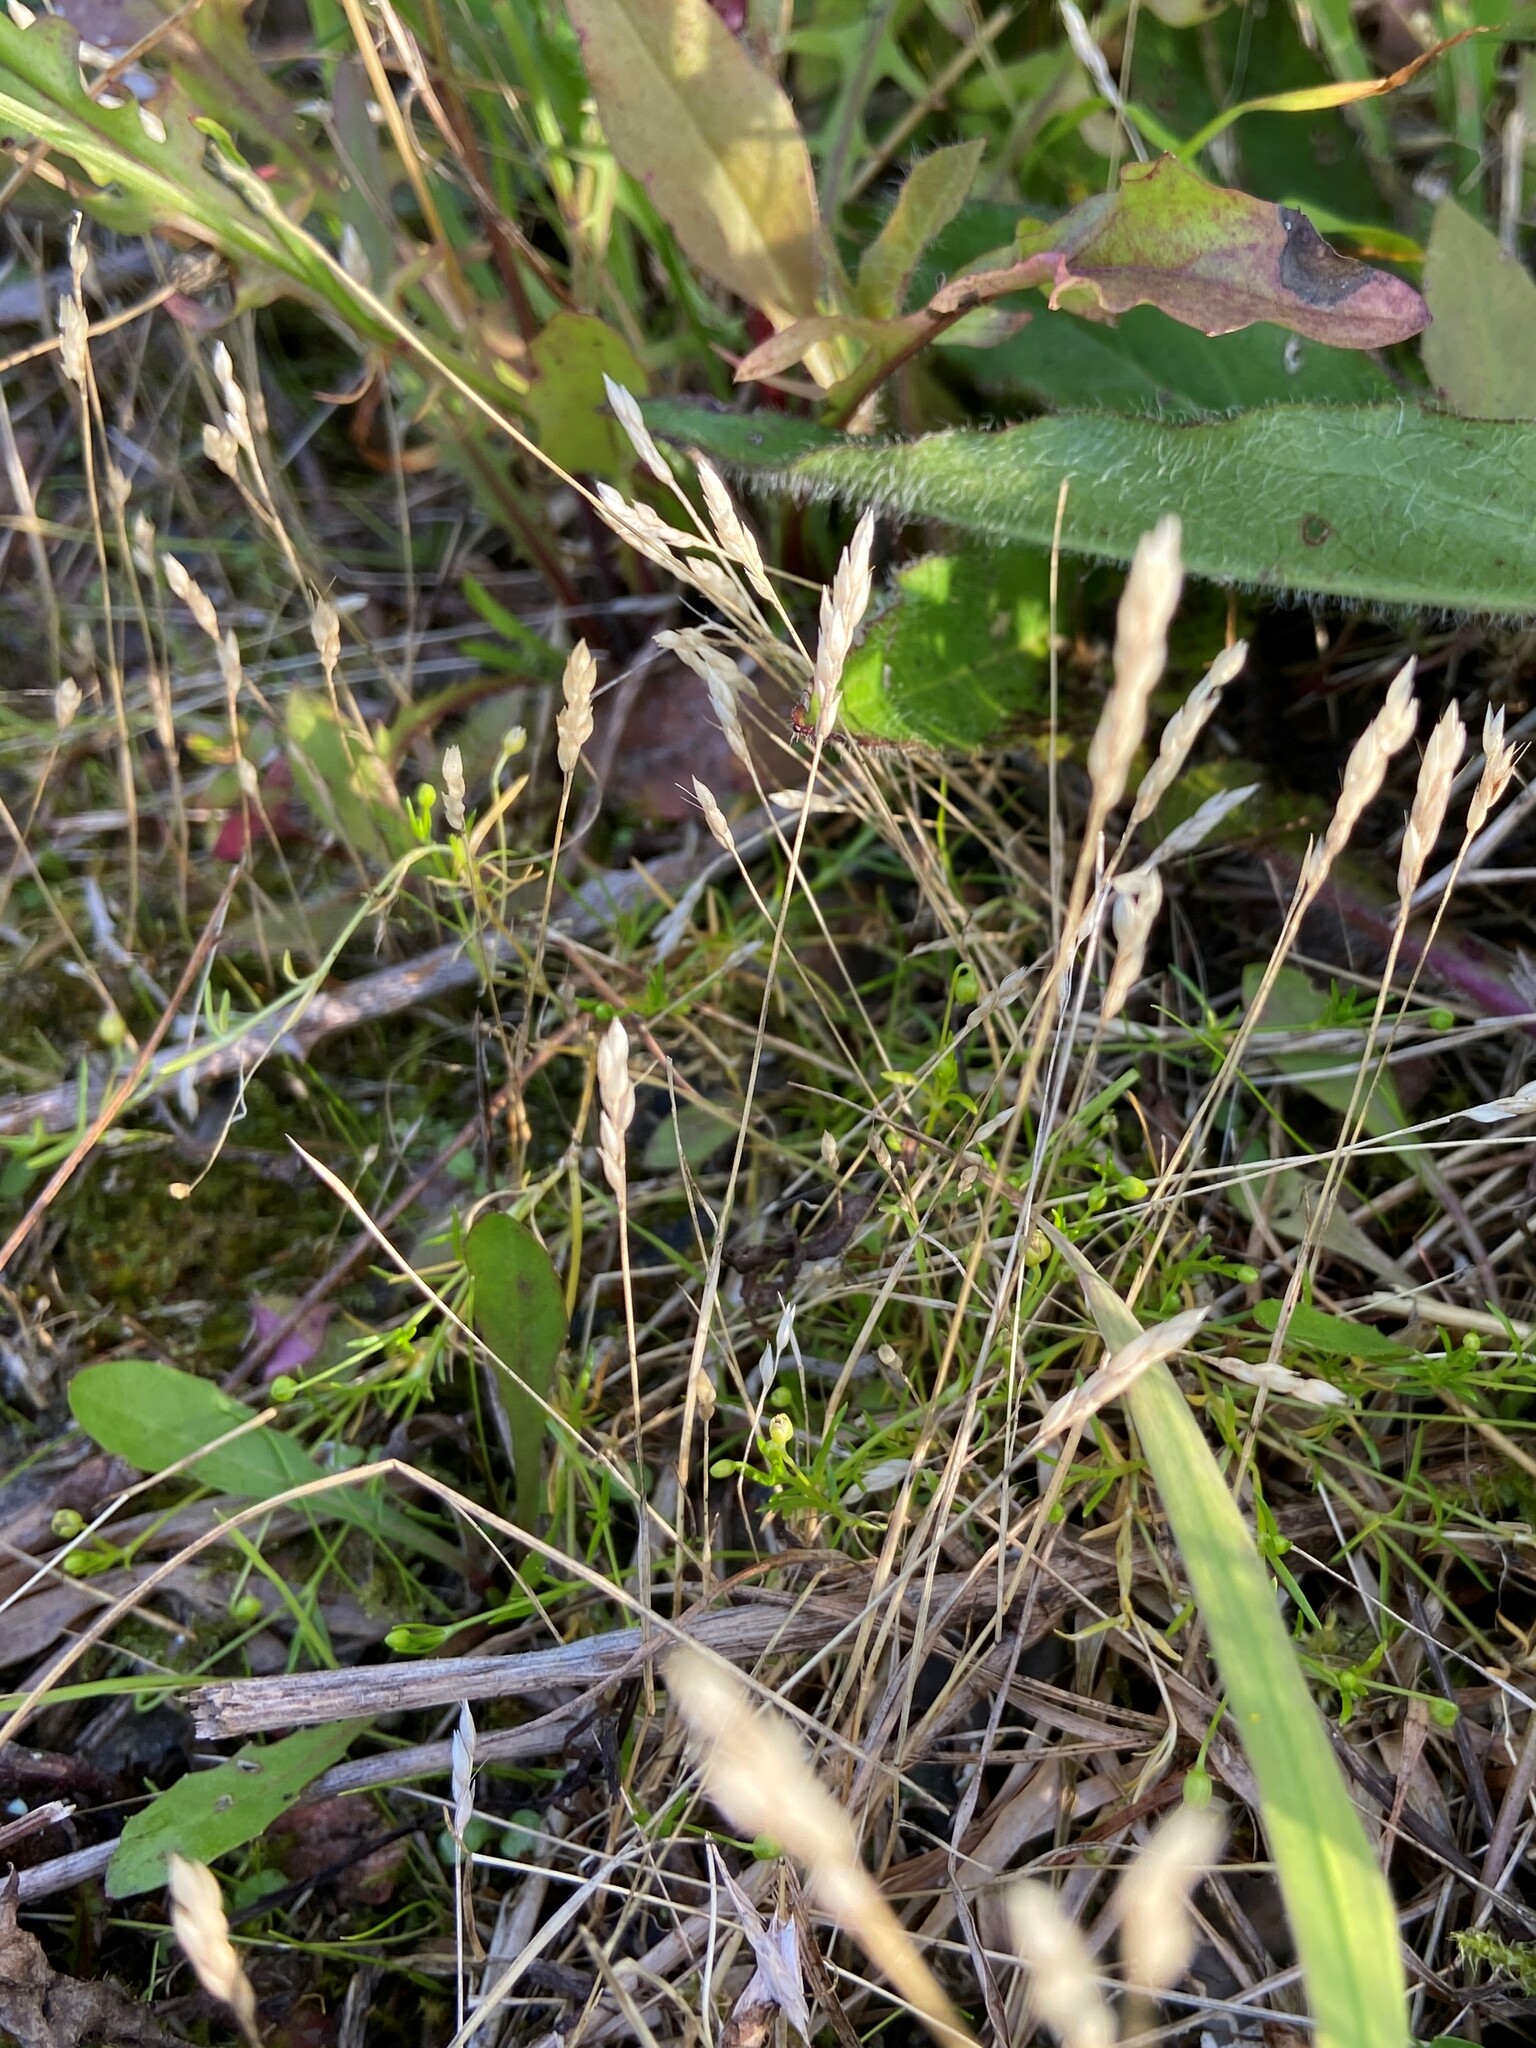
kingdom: Plantae
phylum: Tracheophyta
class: Liliopsida
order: Poales
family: Poaceae
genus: Aira
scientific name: Aira praecox
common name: Early hair-grass
